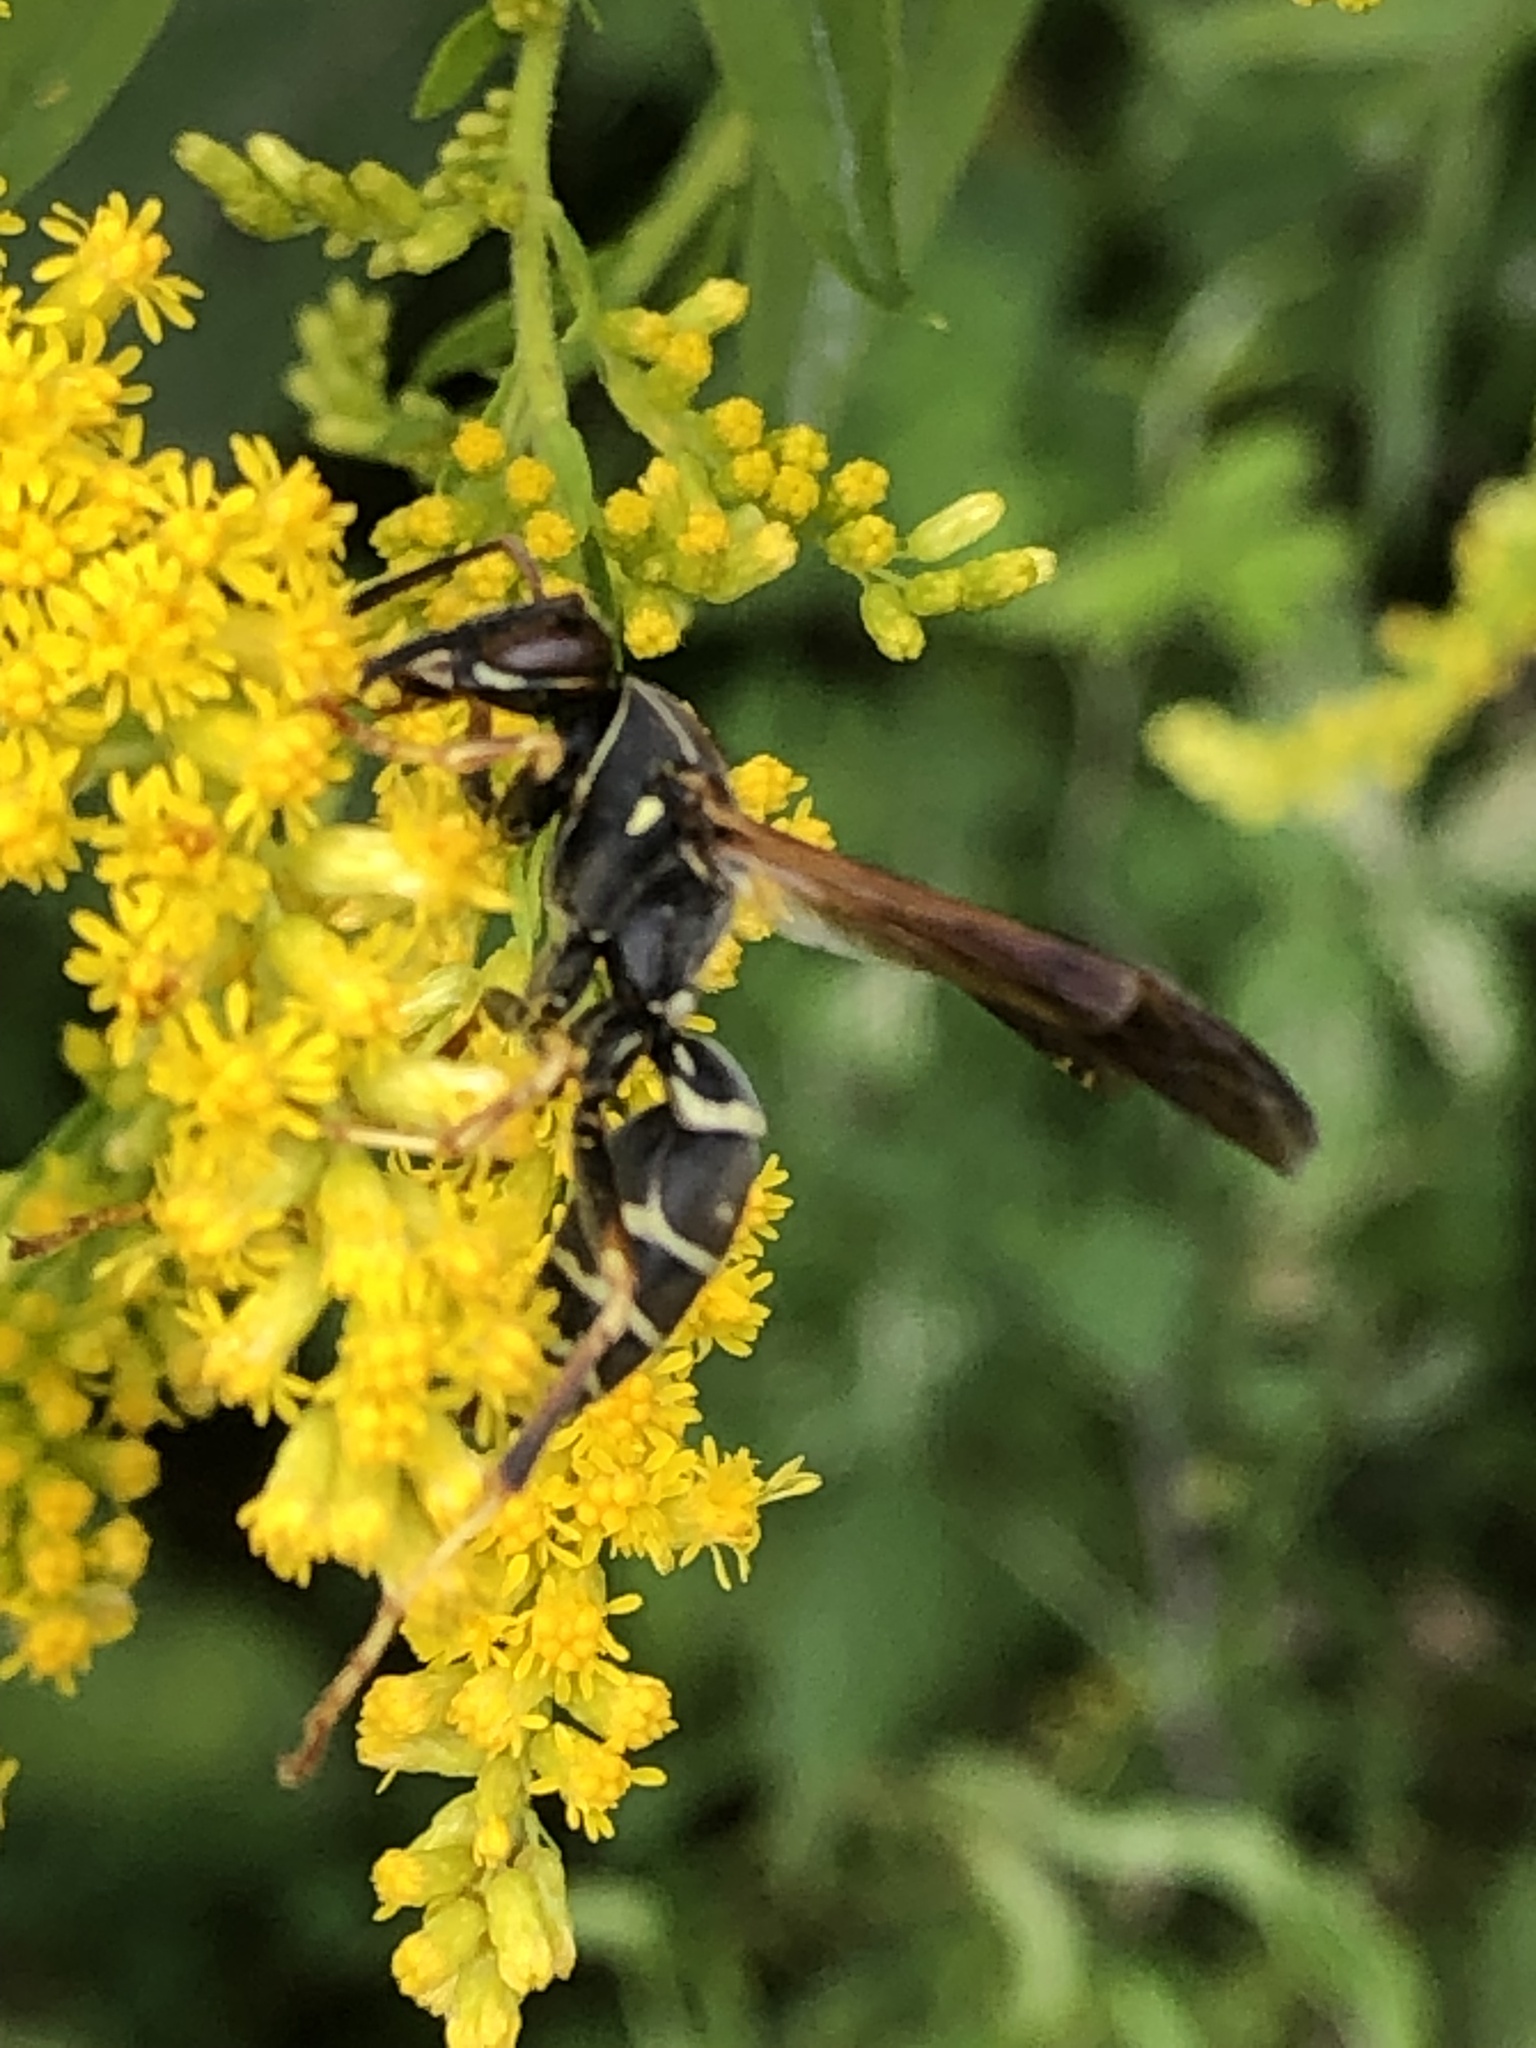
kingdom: Animalia
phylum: Arthropoda
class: Insecta
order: Hymenoptera
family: Eumenidae
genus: Polistes
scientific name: Polistes fuscatus
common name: Dark paper wasp
